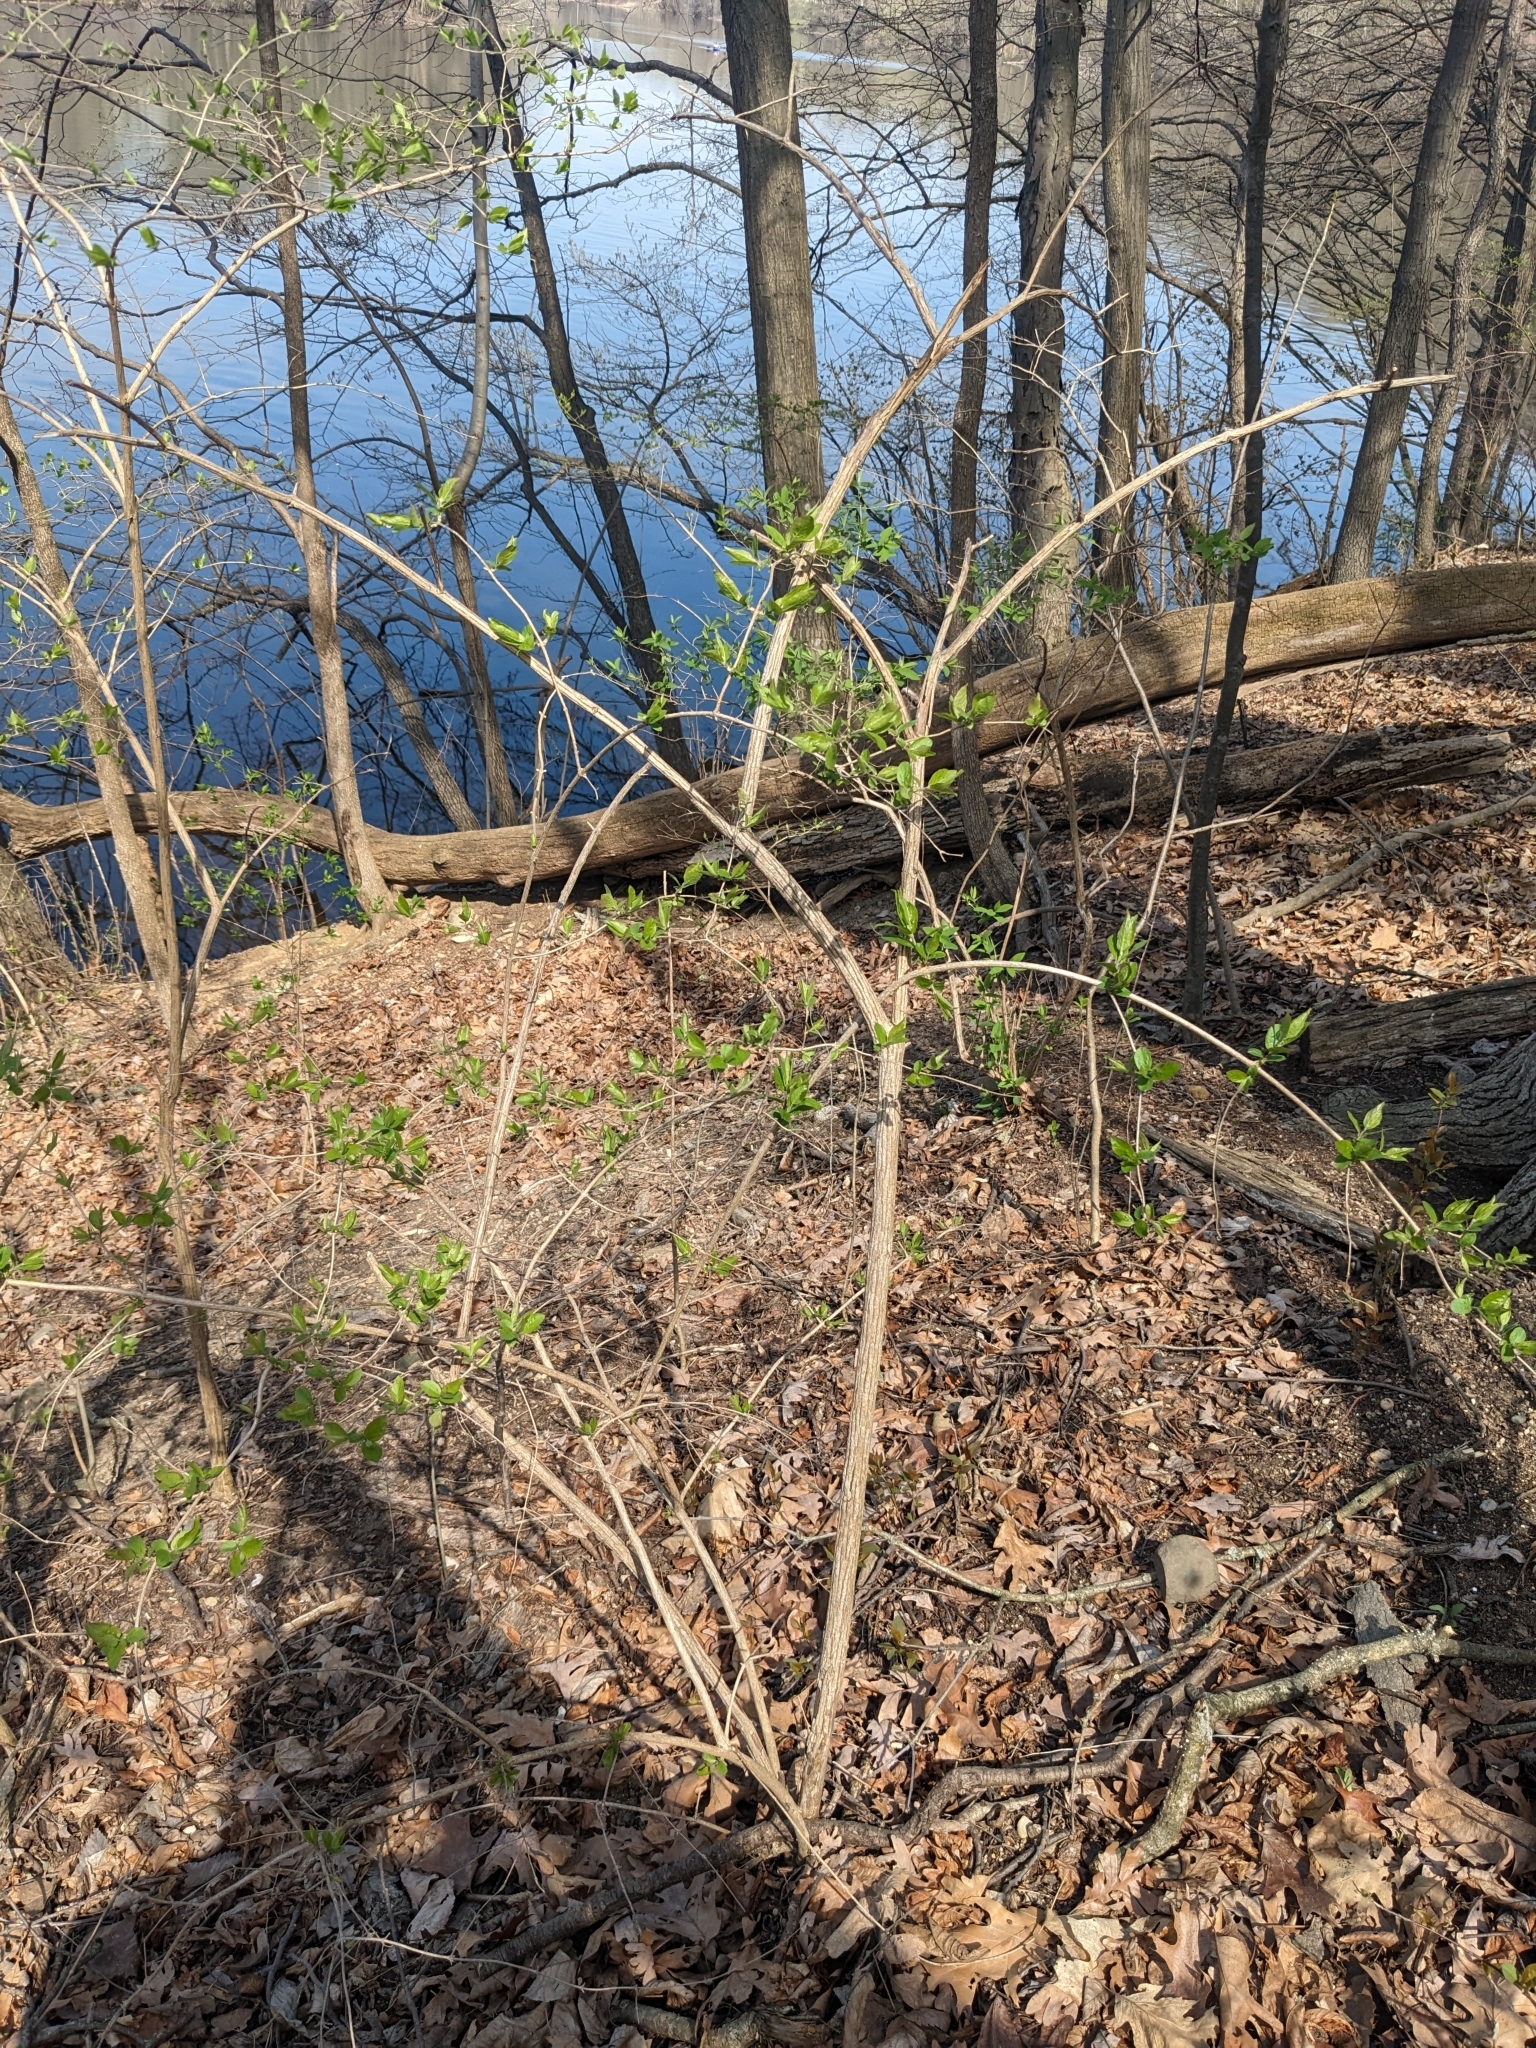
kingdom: Plantae
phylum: Tracheophyta
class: Magnoliopsida
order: Dipsacales
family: Caprifoliaceae
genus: Lonicera
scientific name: Lonicera maackii
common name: Amur honeysuckle
